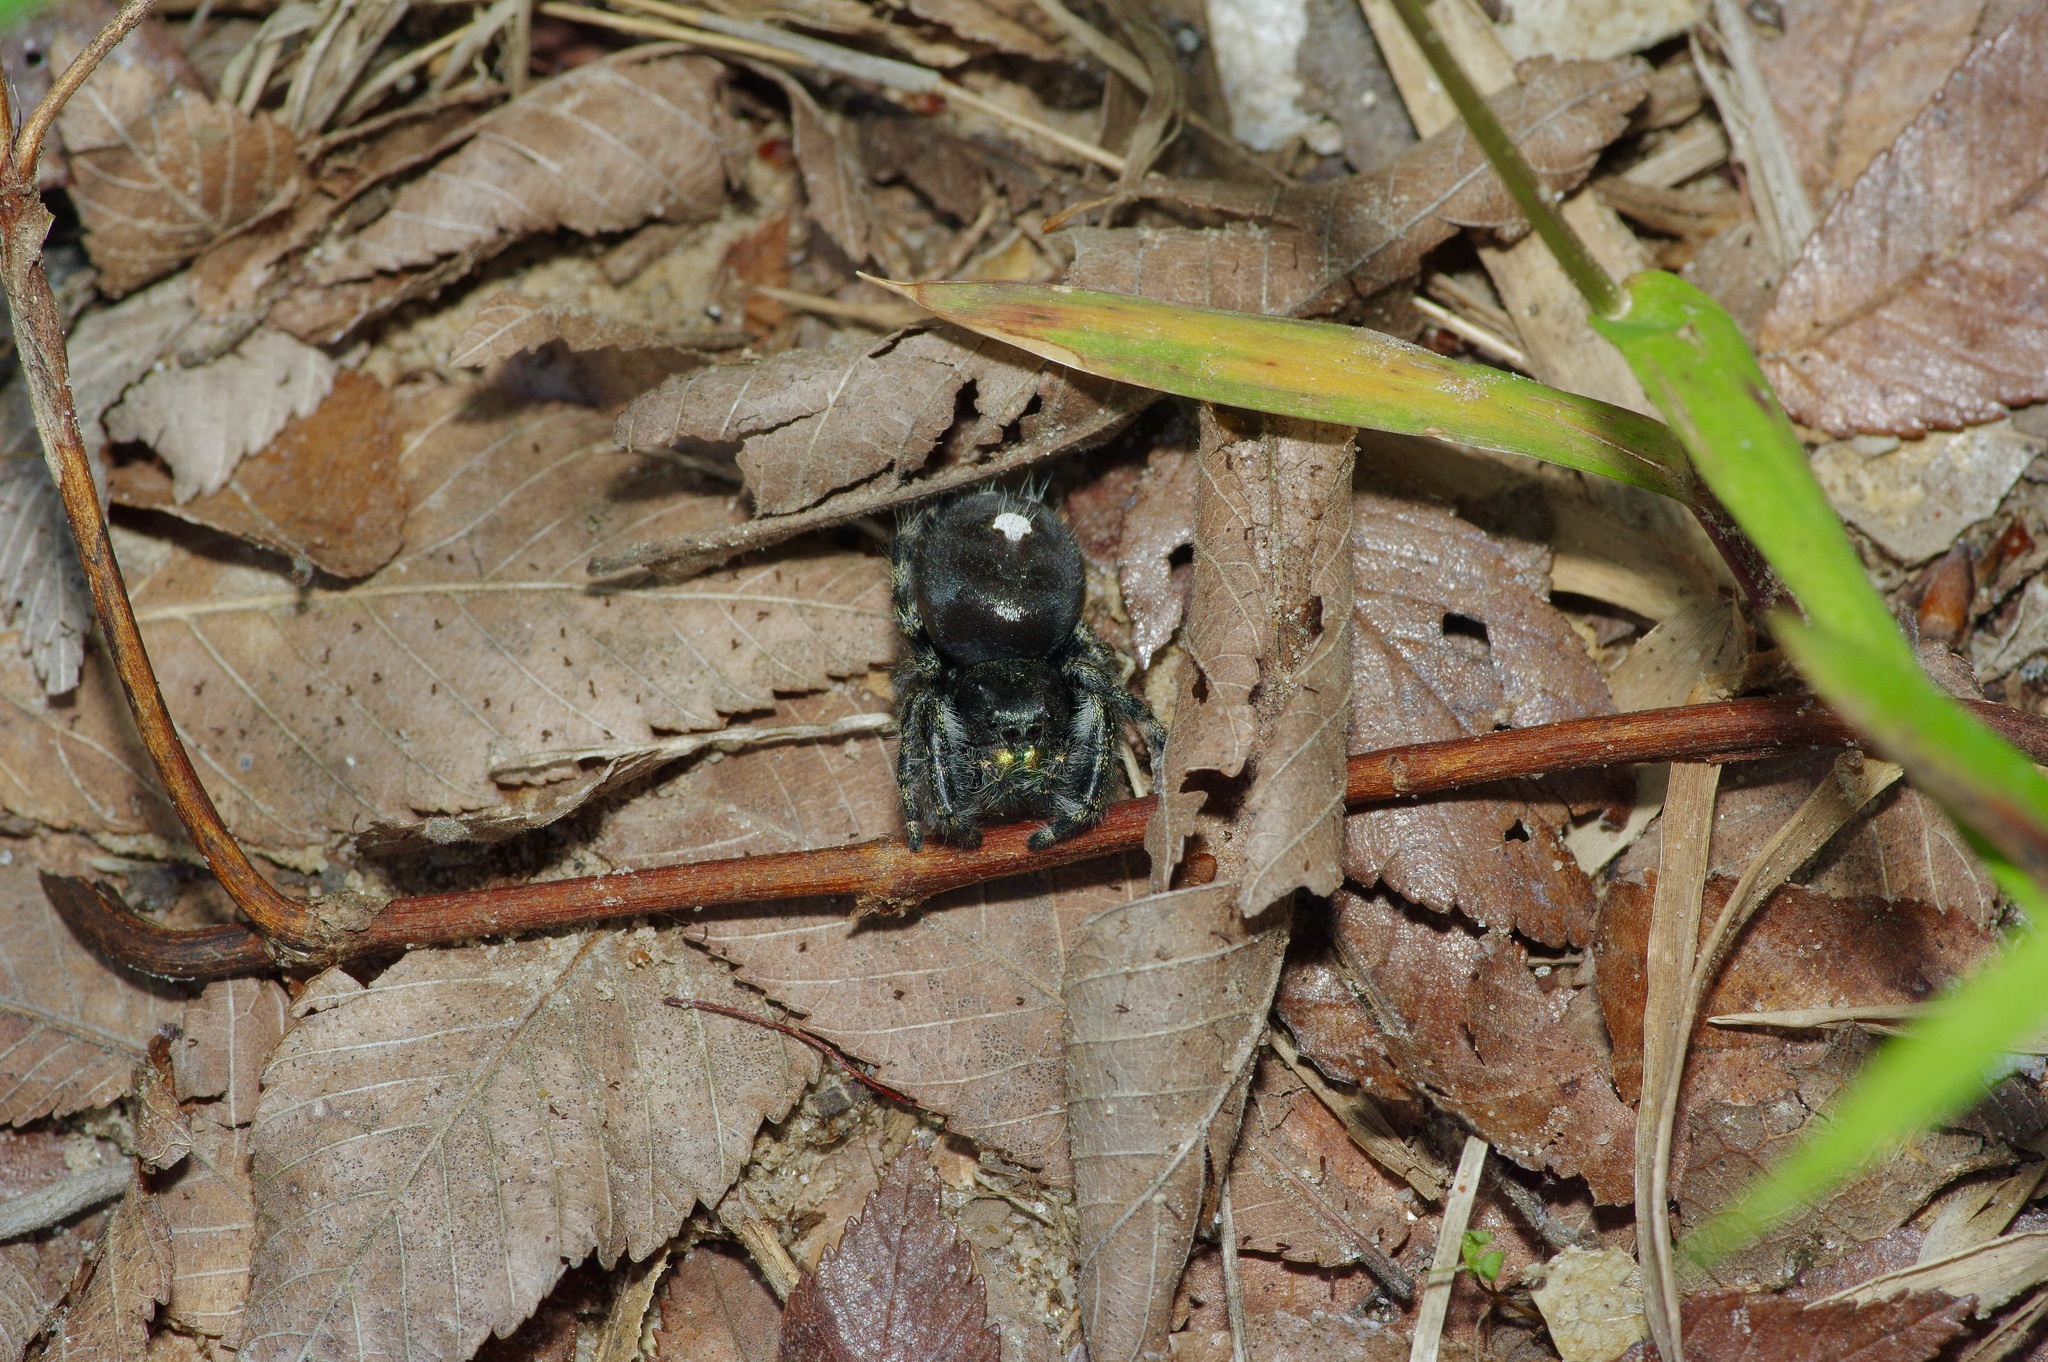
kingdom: Animalia
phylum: Arthropoda
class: Arachnida
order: Araneae
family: Salticidae
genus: Phidippus
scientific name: Phidippus audax
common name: Bold jumper
